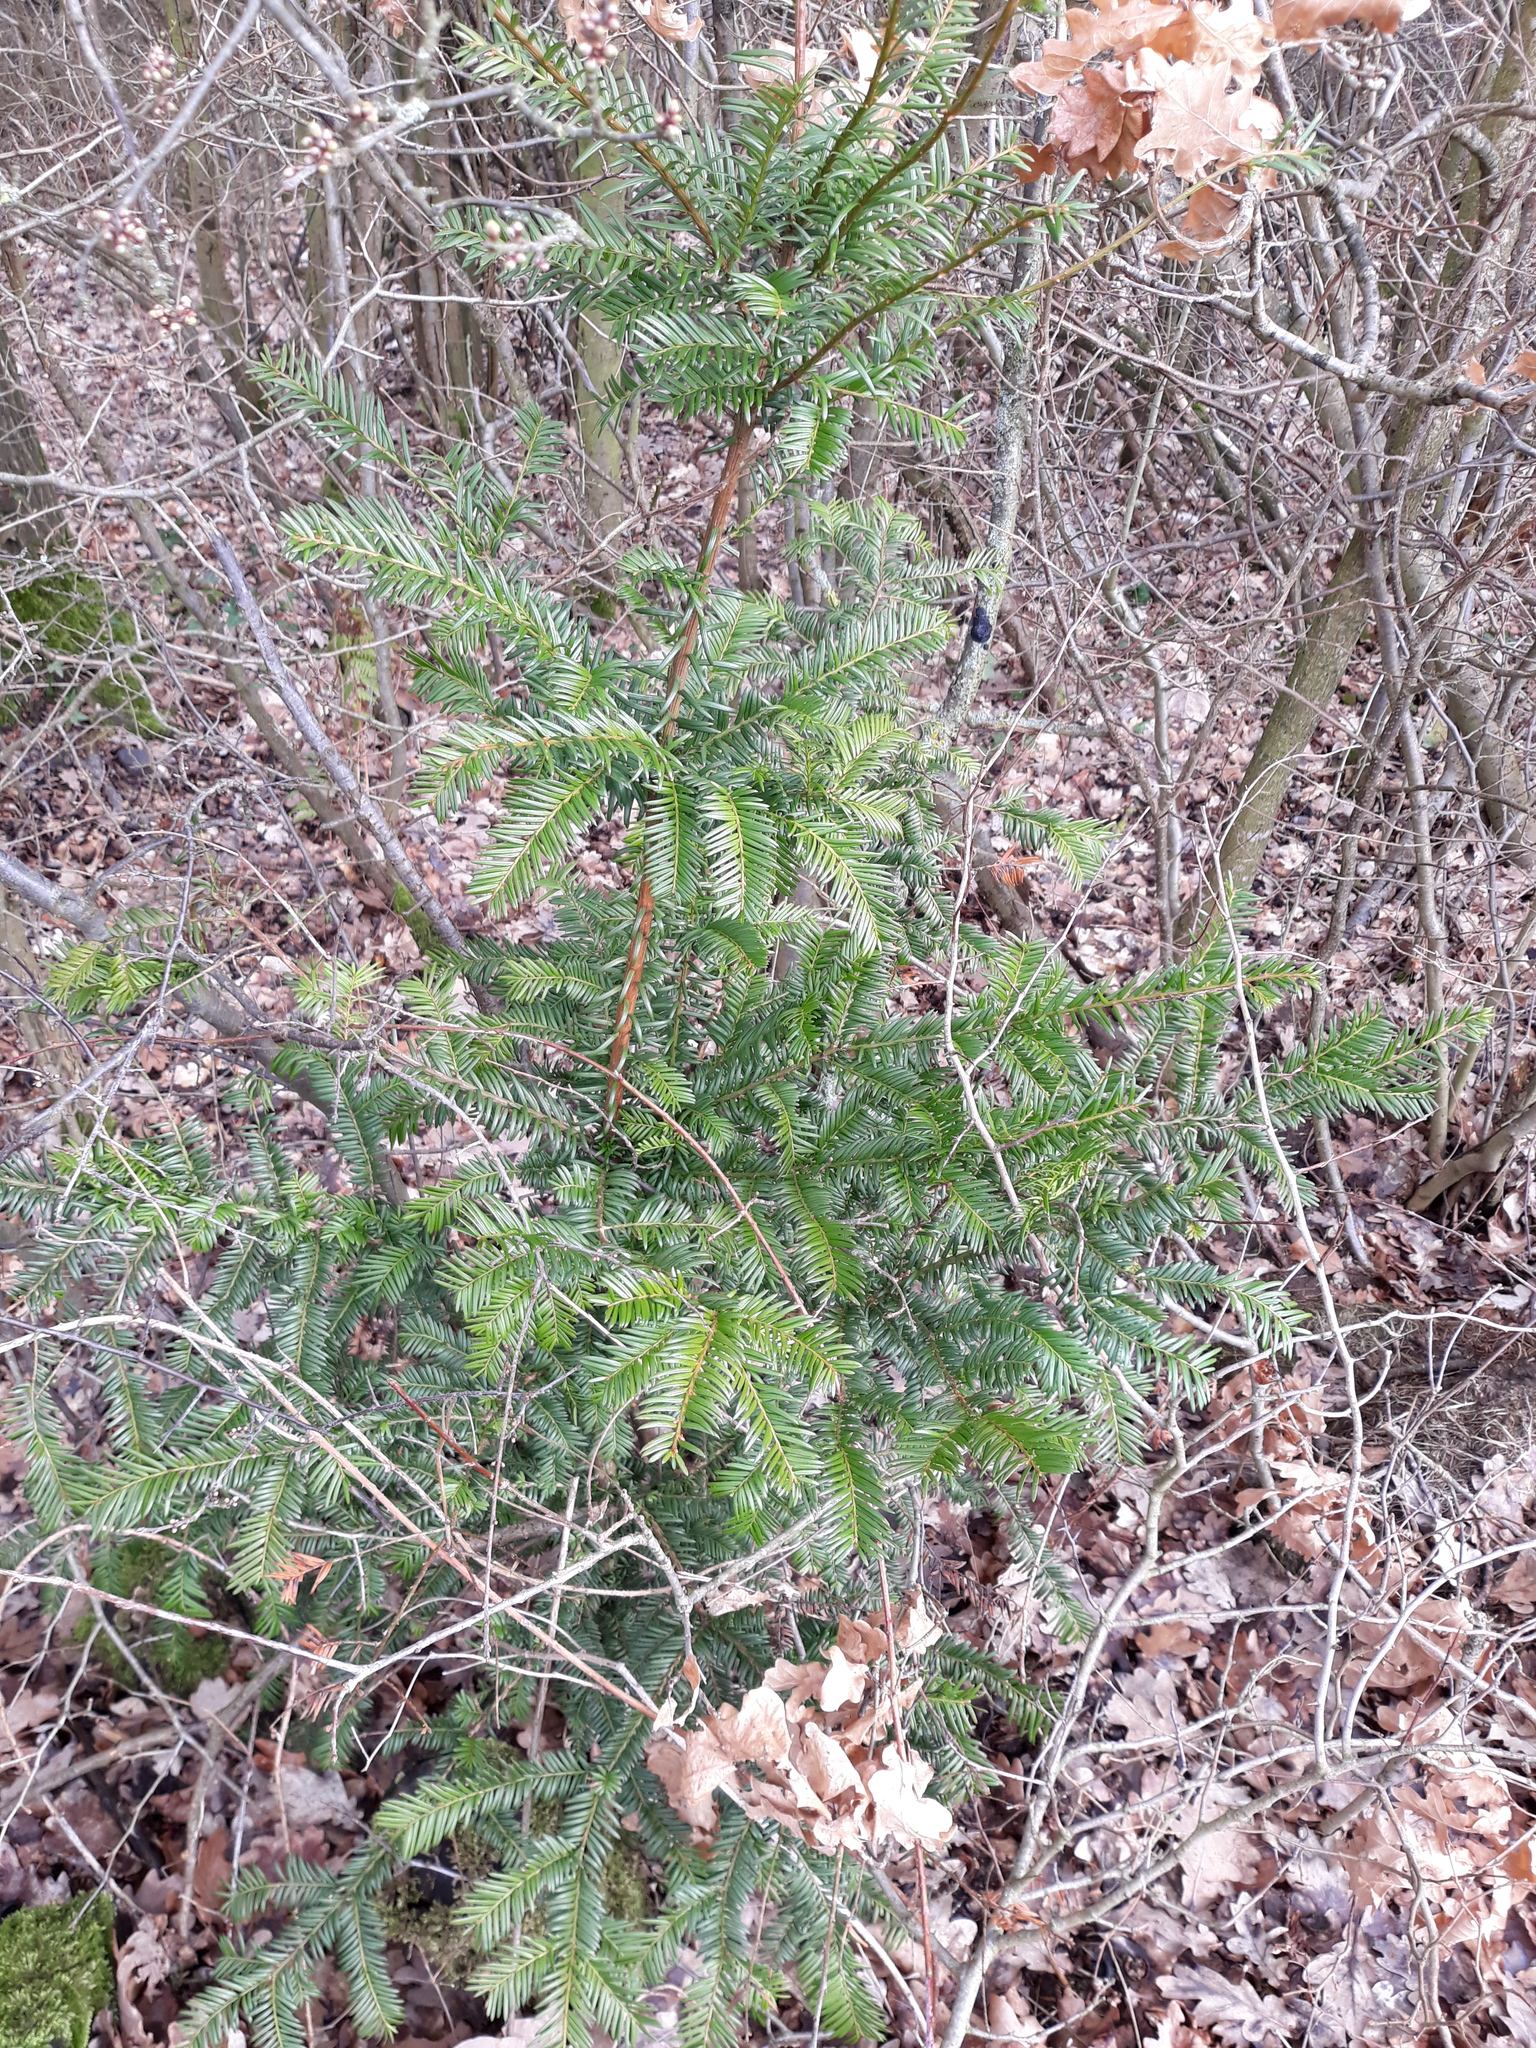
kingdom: Plantae
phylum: Tracheophyta
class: Pinopsida
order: Pinales
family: Taxaceae
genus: Taxus
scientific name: Taxus baccata
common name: Yew
